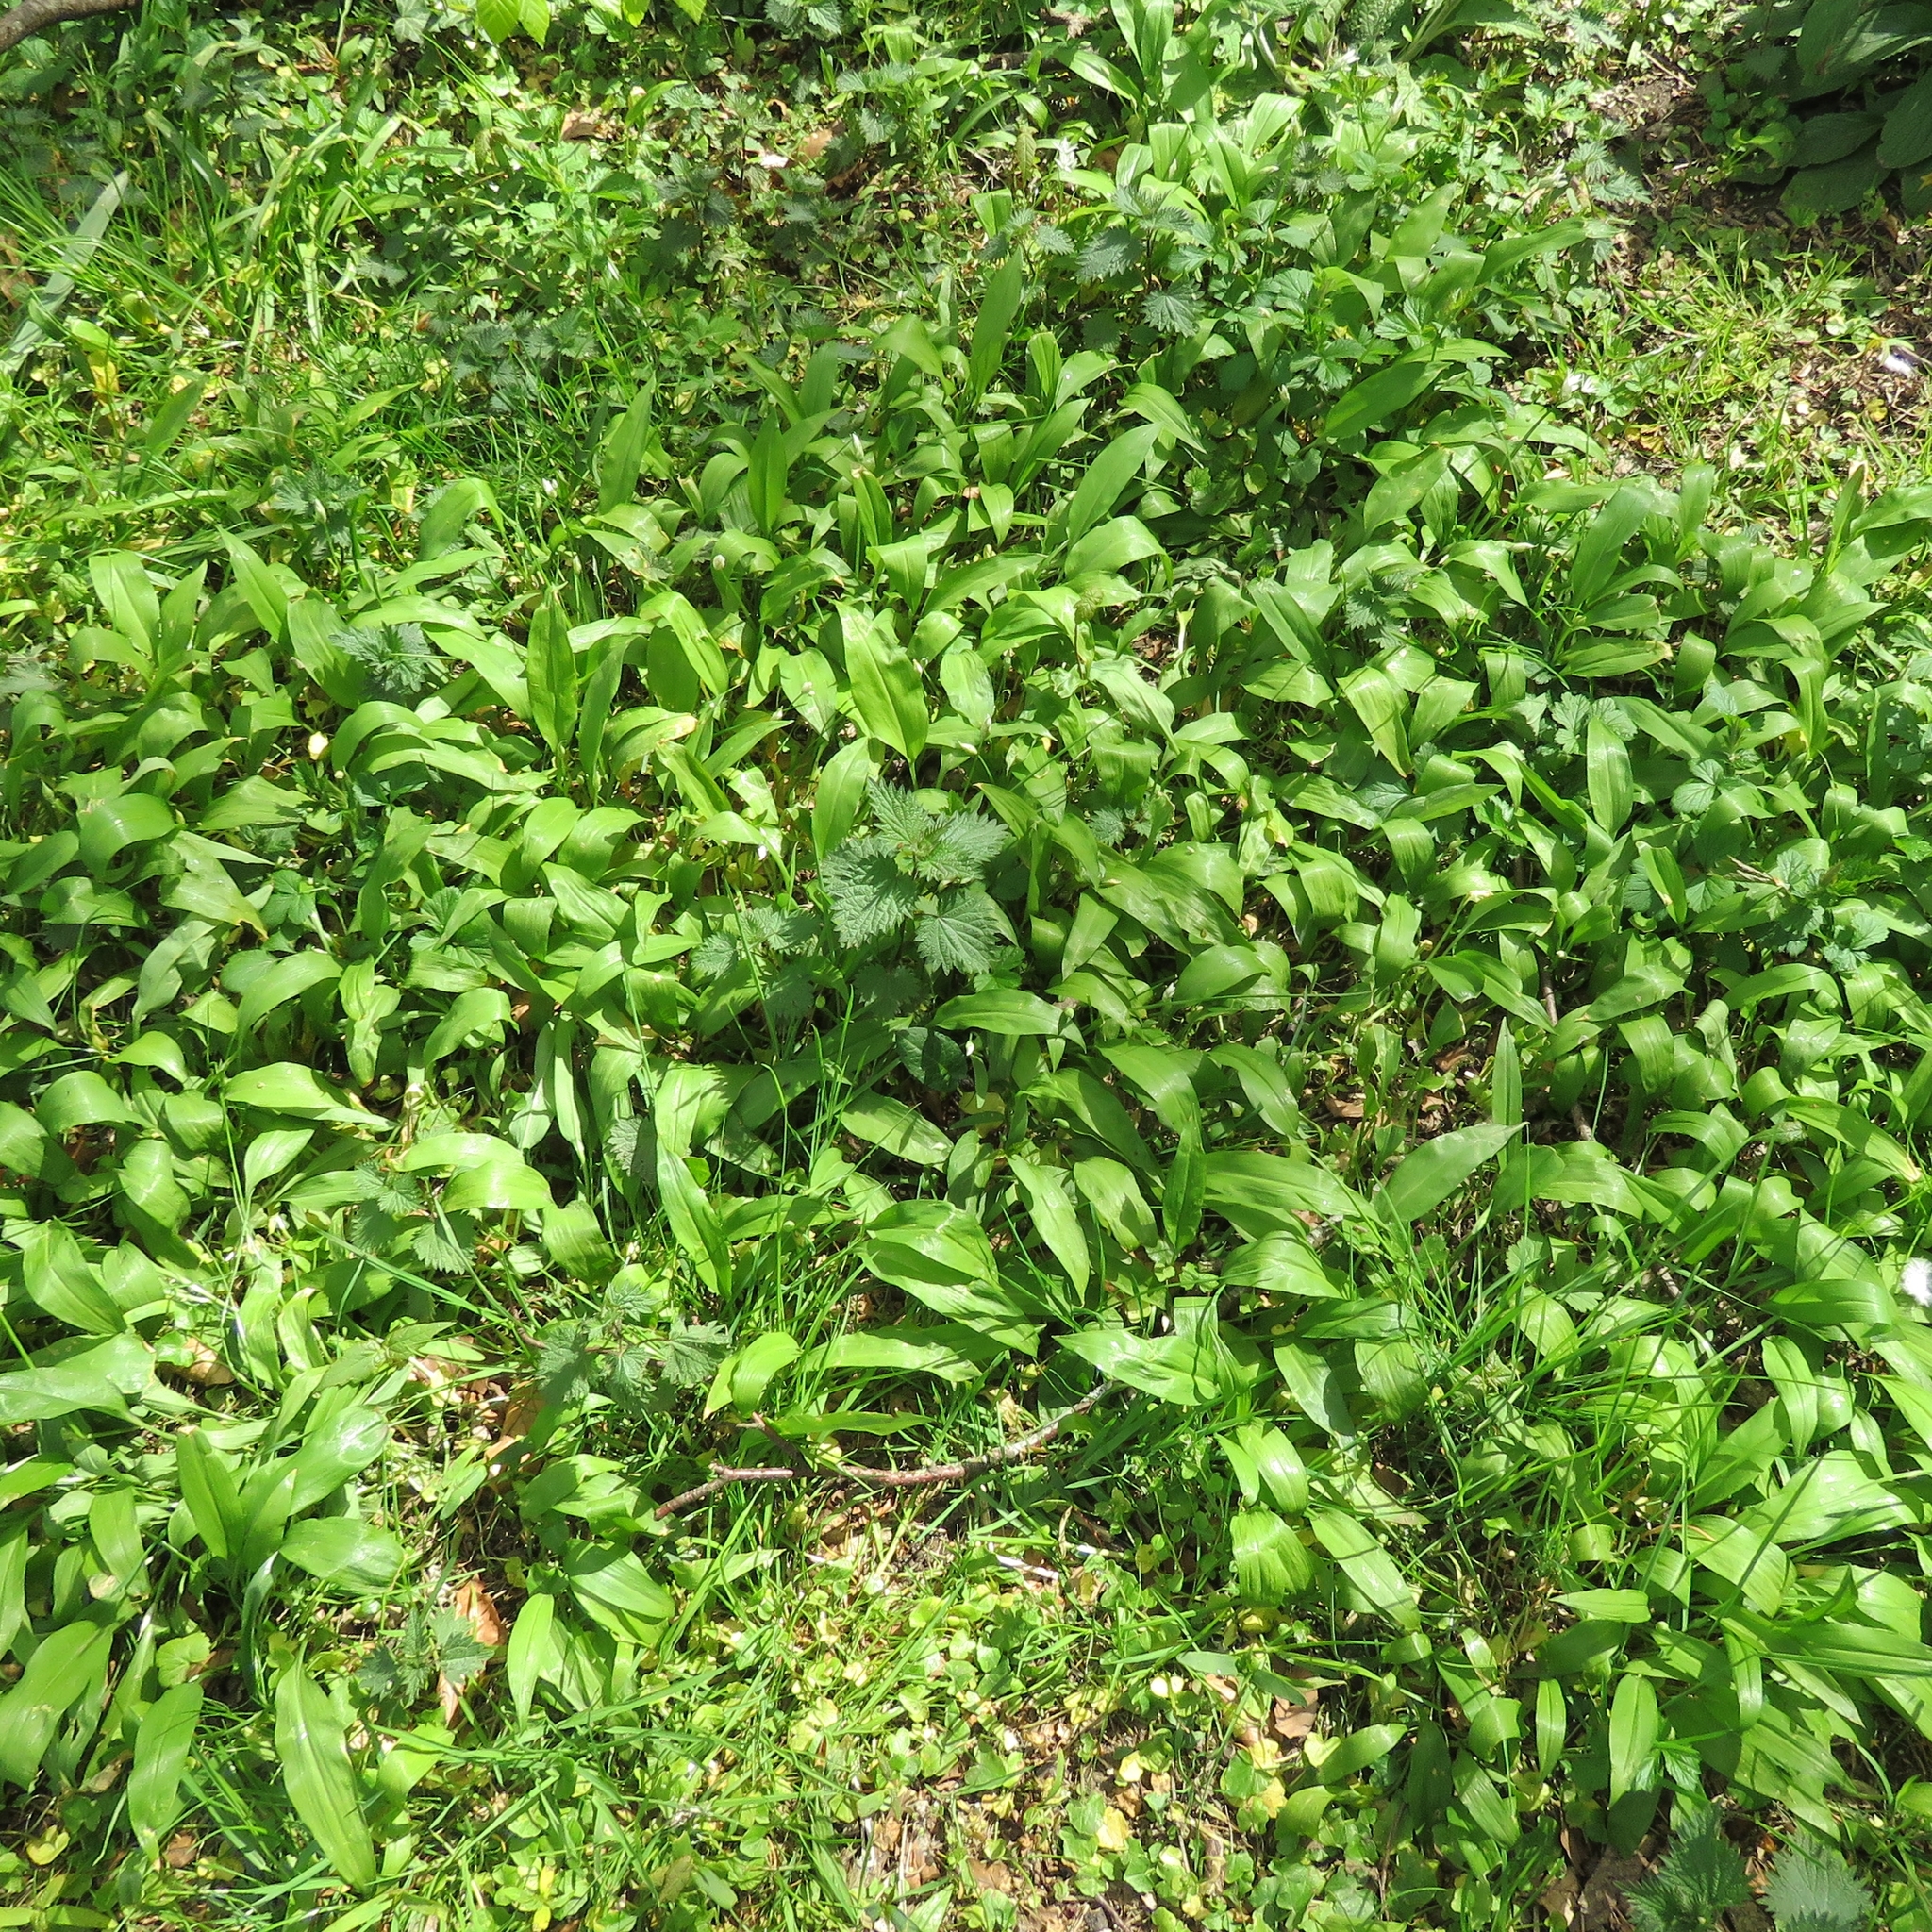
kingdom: Plantae
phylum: Tracheophyta
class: Magnoliopsida
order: Rosales
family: Urticaceae
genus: Urtica
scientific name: Urtica dioica
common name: Common nettle
